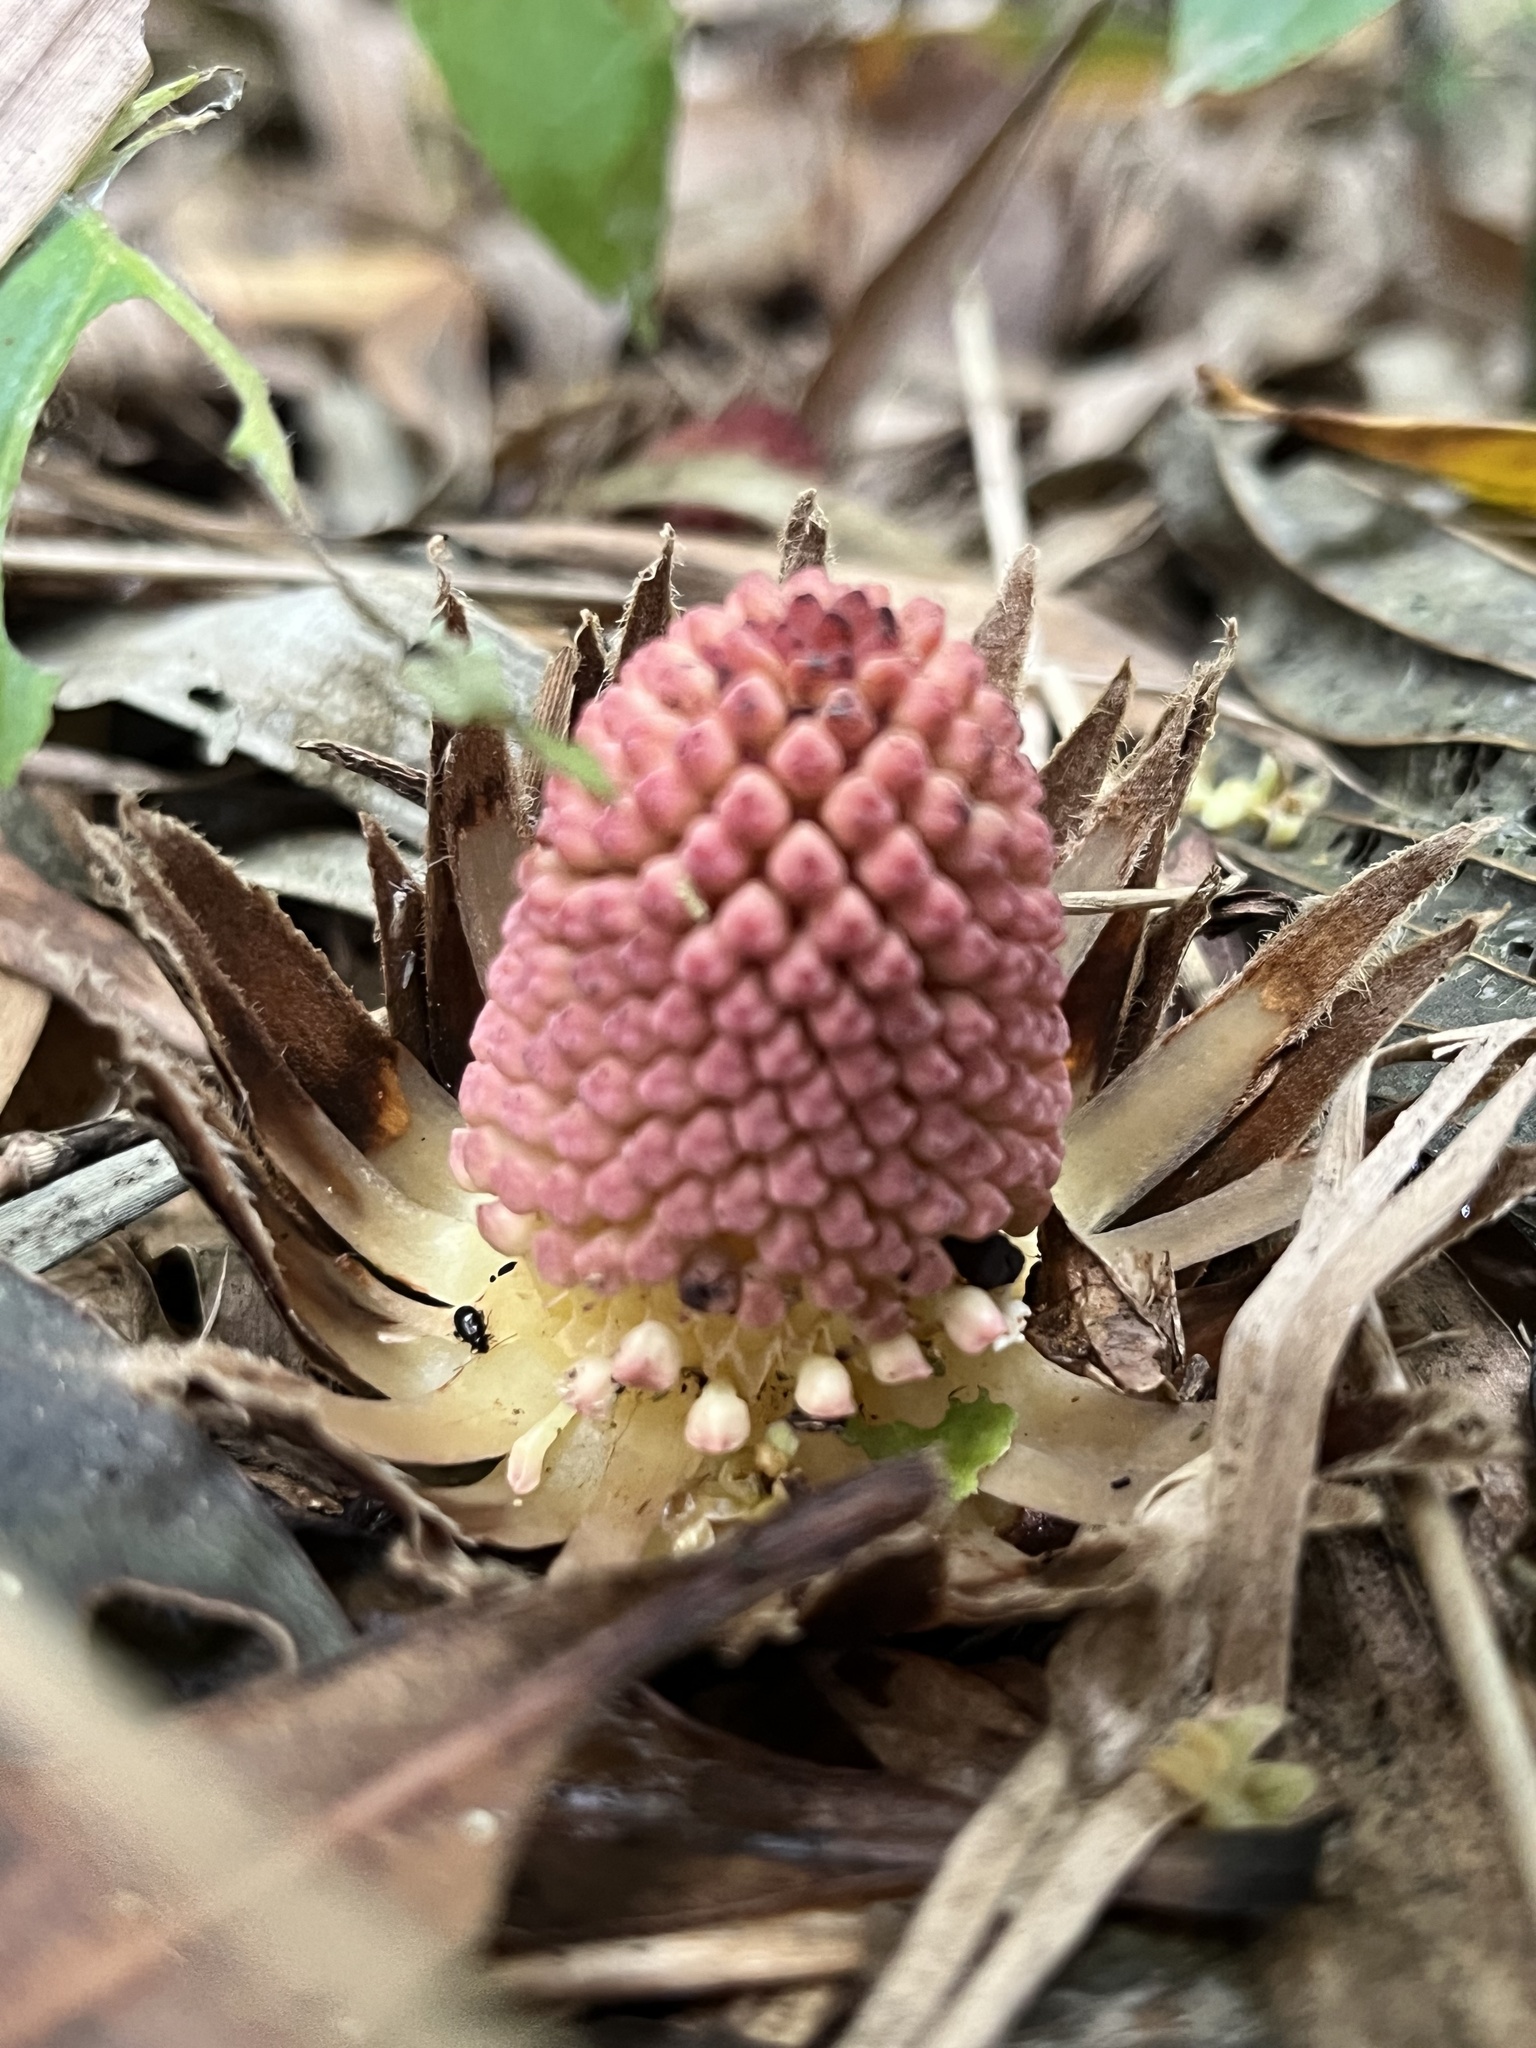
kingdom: Plantae
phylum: Tracheophyta
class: Magnoliopsida
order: Santalales
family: Balanophoraceae
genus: Langsdorffia
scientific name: Langsdorffia hypogaea
